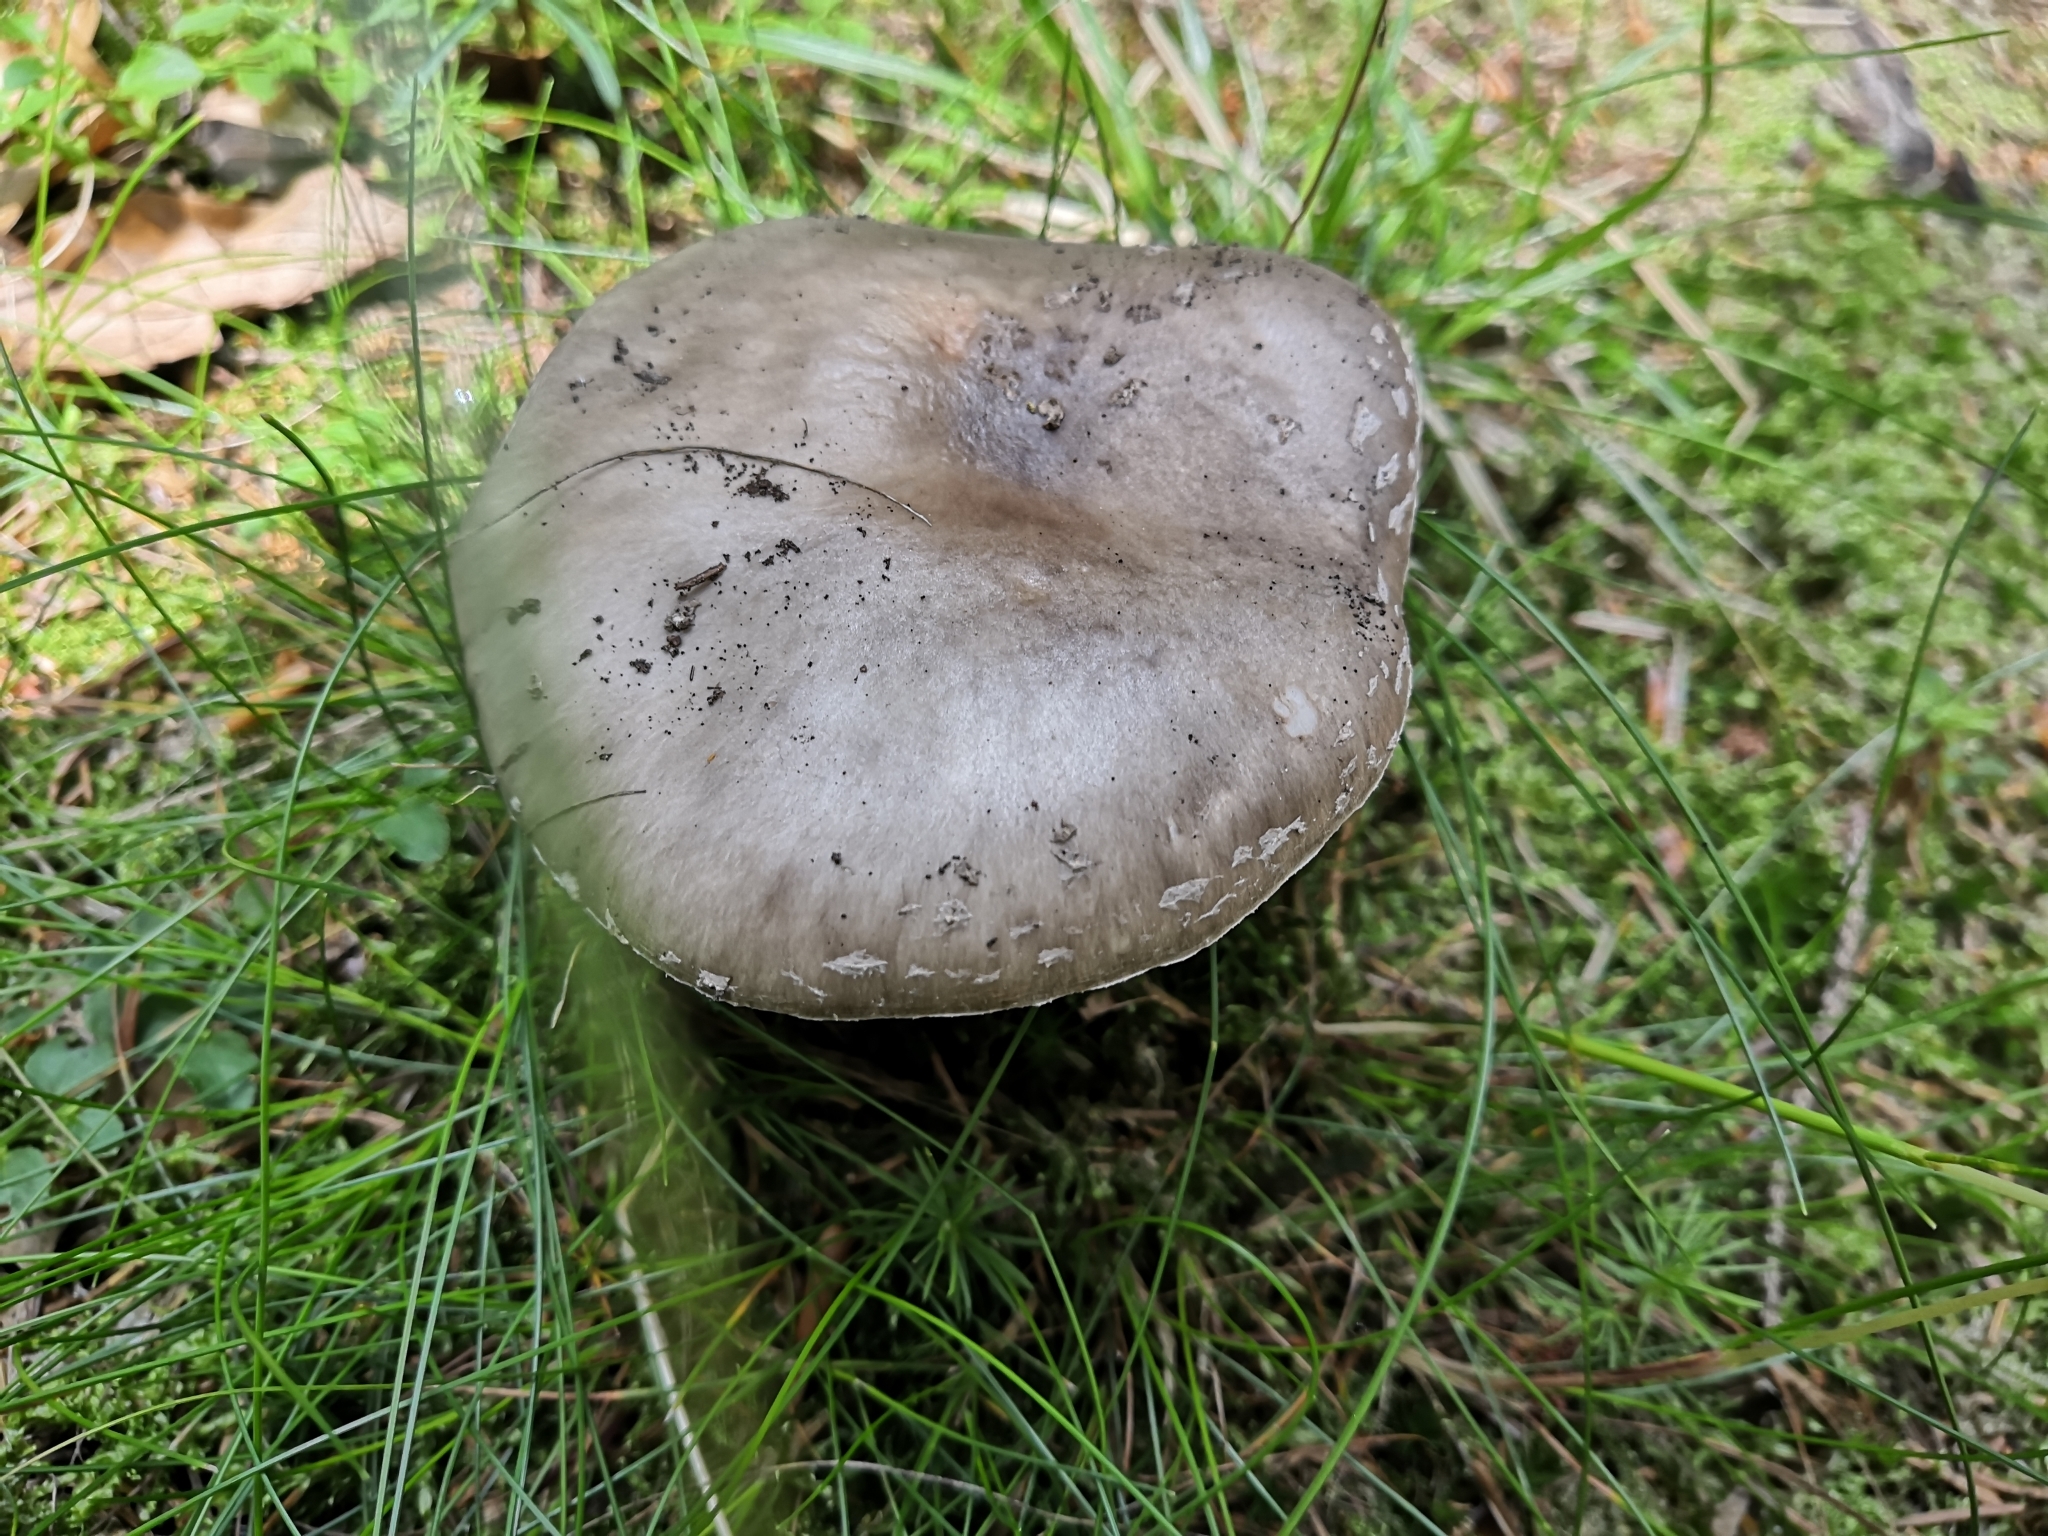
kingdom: Fungi
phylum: Basidiomycota
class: Agaricomycetes
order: Agaricales
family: Amanitaceae
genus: Amanita
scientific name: Amanita excelsa
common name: European false blusher
